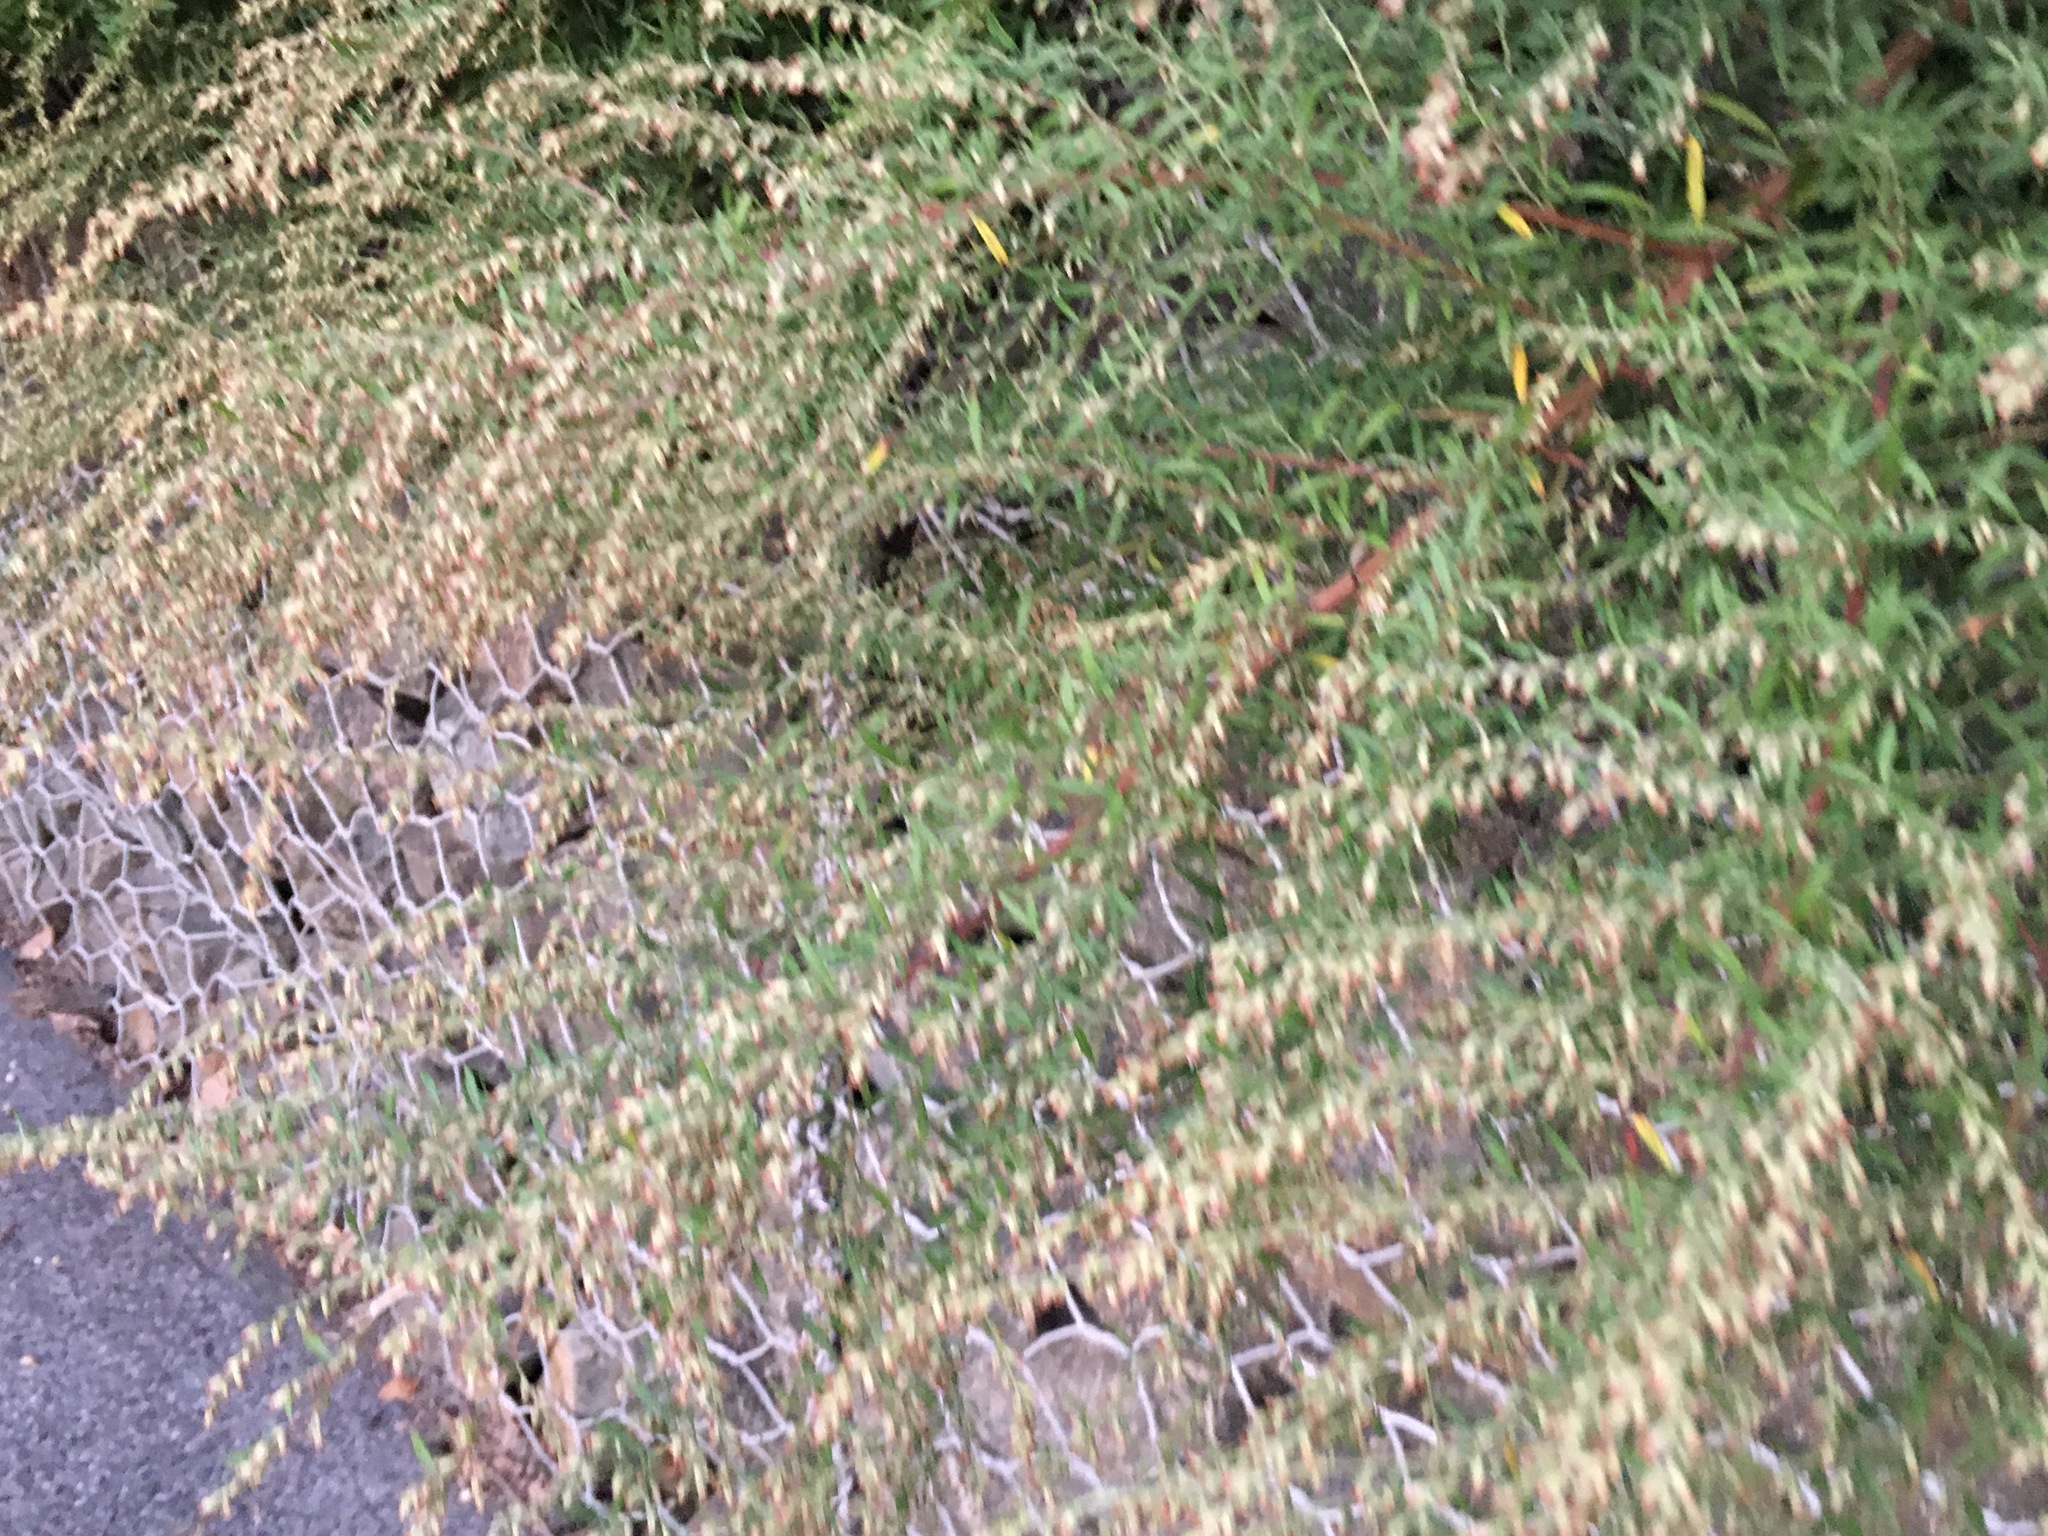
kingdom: Plantae
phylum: Tracheophyta
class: Magnoliopsida
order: Asterales
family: Asteraceae
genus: Artemisia
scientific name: Artemisia vulgaris
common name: Mugwort
